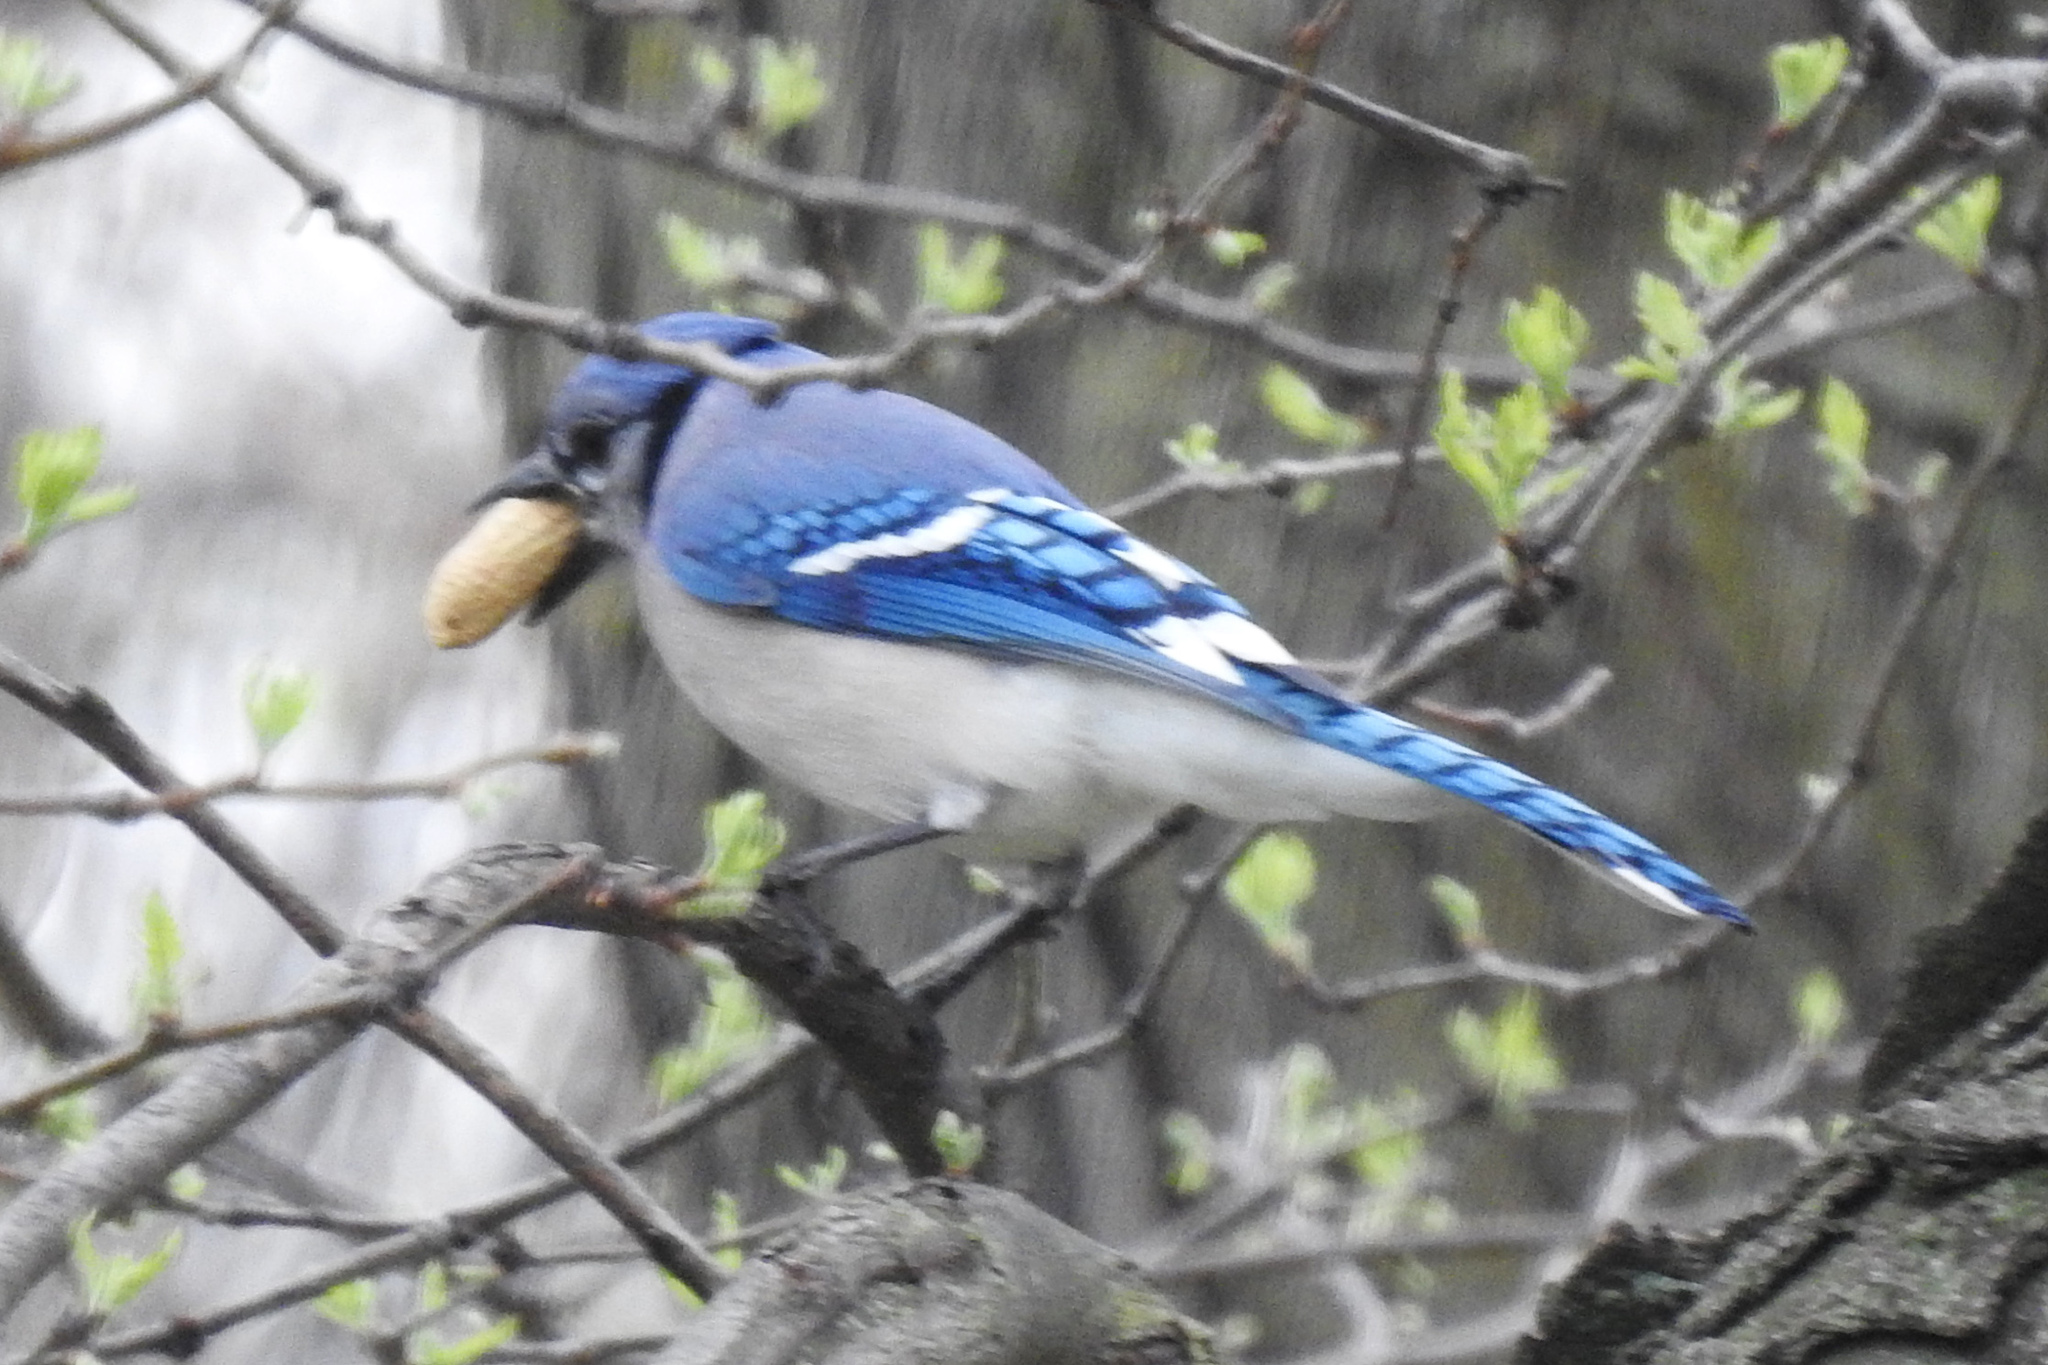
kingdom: Animalia
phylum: Chordata
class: Aves
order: Passeriformes
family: Corvidae
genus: Cyanocitta
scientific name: Cyanocitta cristata
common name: Blue jay
